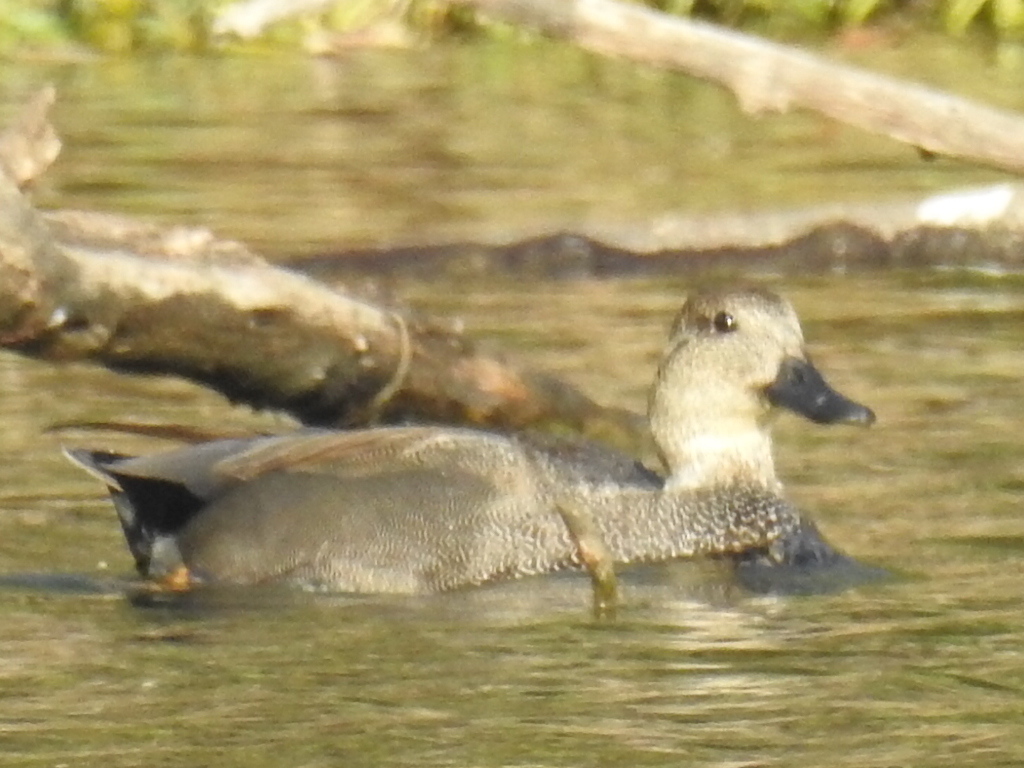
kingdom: Animalia
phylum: Chordata
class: Aves
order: Anseriformes
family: Anatidae
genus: Mareca
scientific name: Mareca strepera
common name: Gadwall
